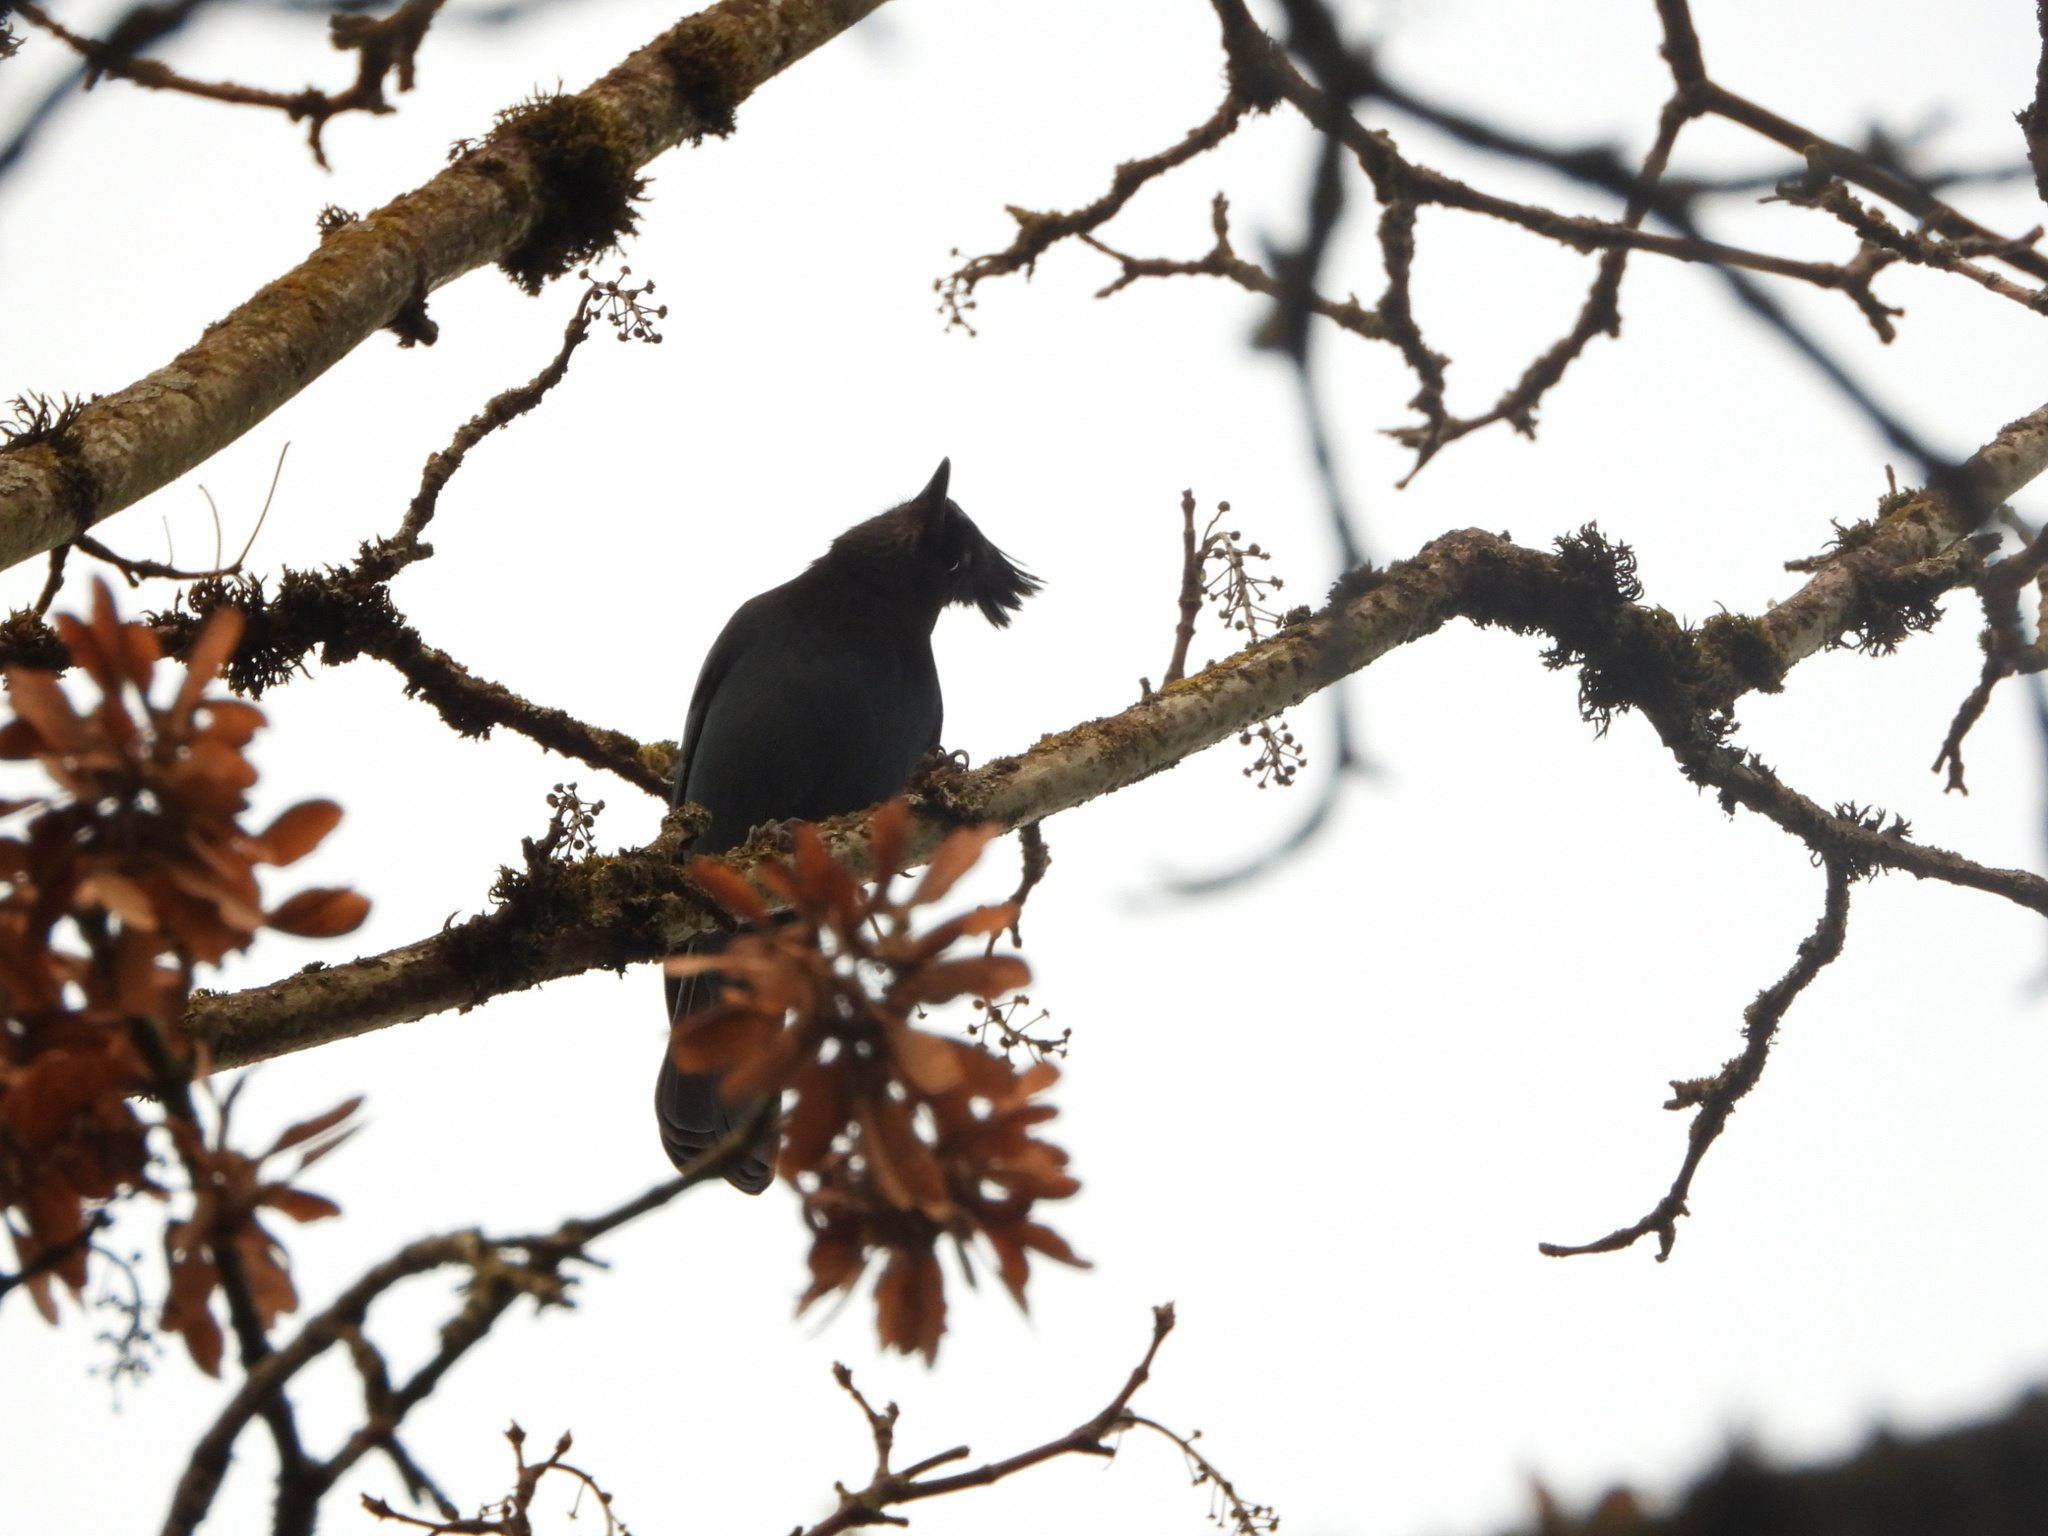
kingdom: Animalia
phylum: Chordata
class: Aves
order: Passeriformes
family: Corvidae
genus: Cyanocitta
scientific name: Cyanocitta stelleri
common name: Steller's jay
